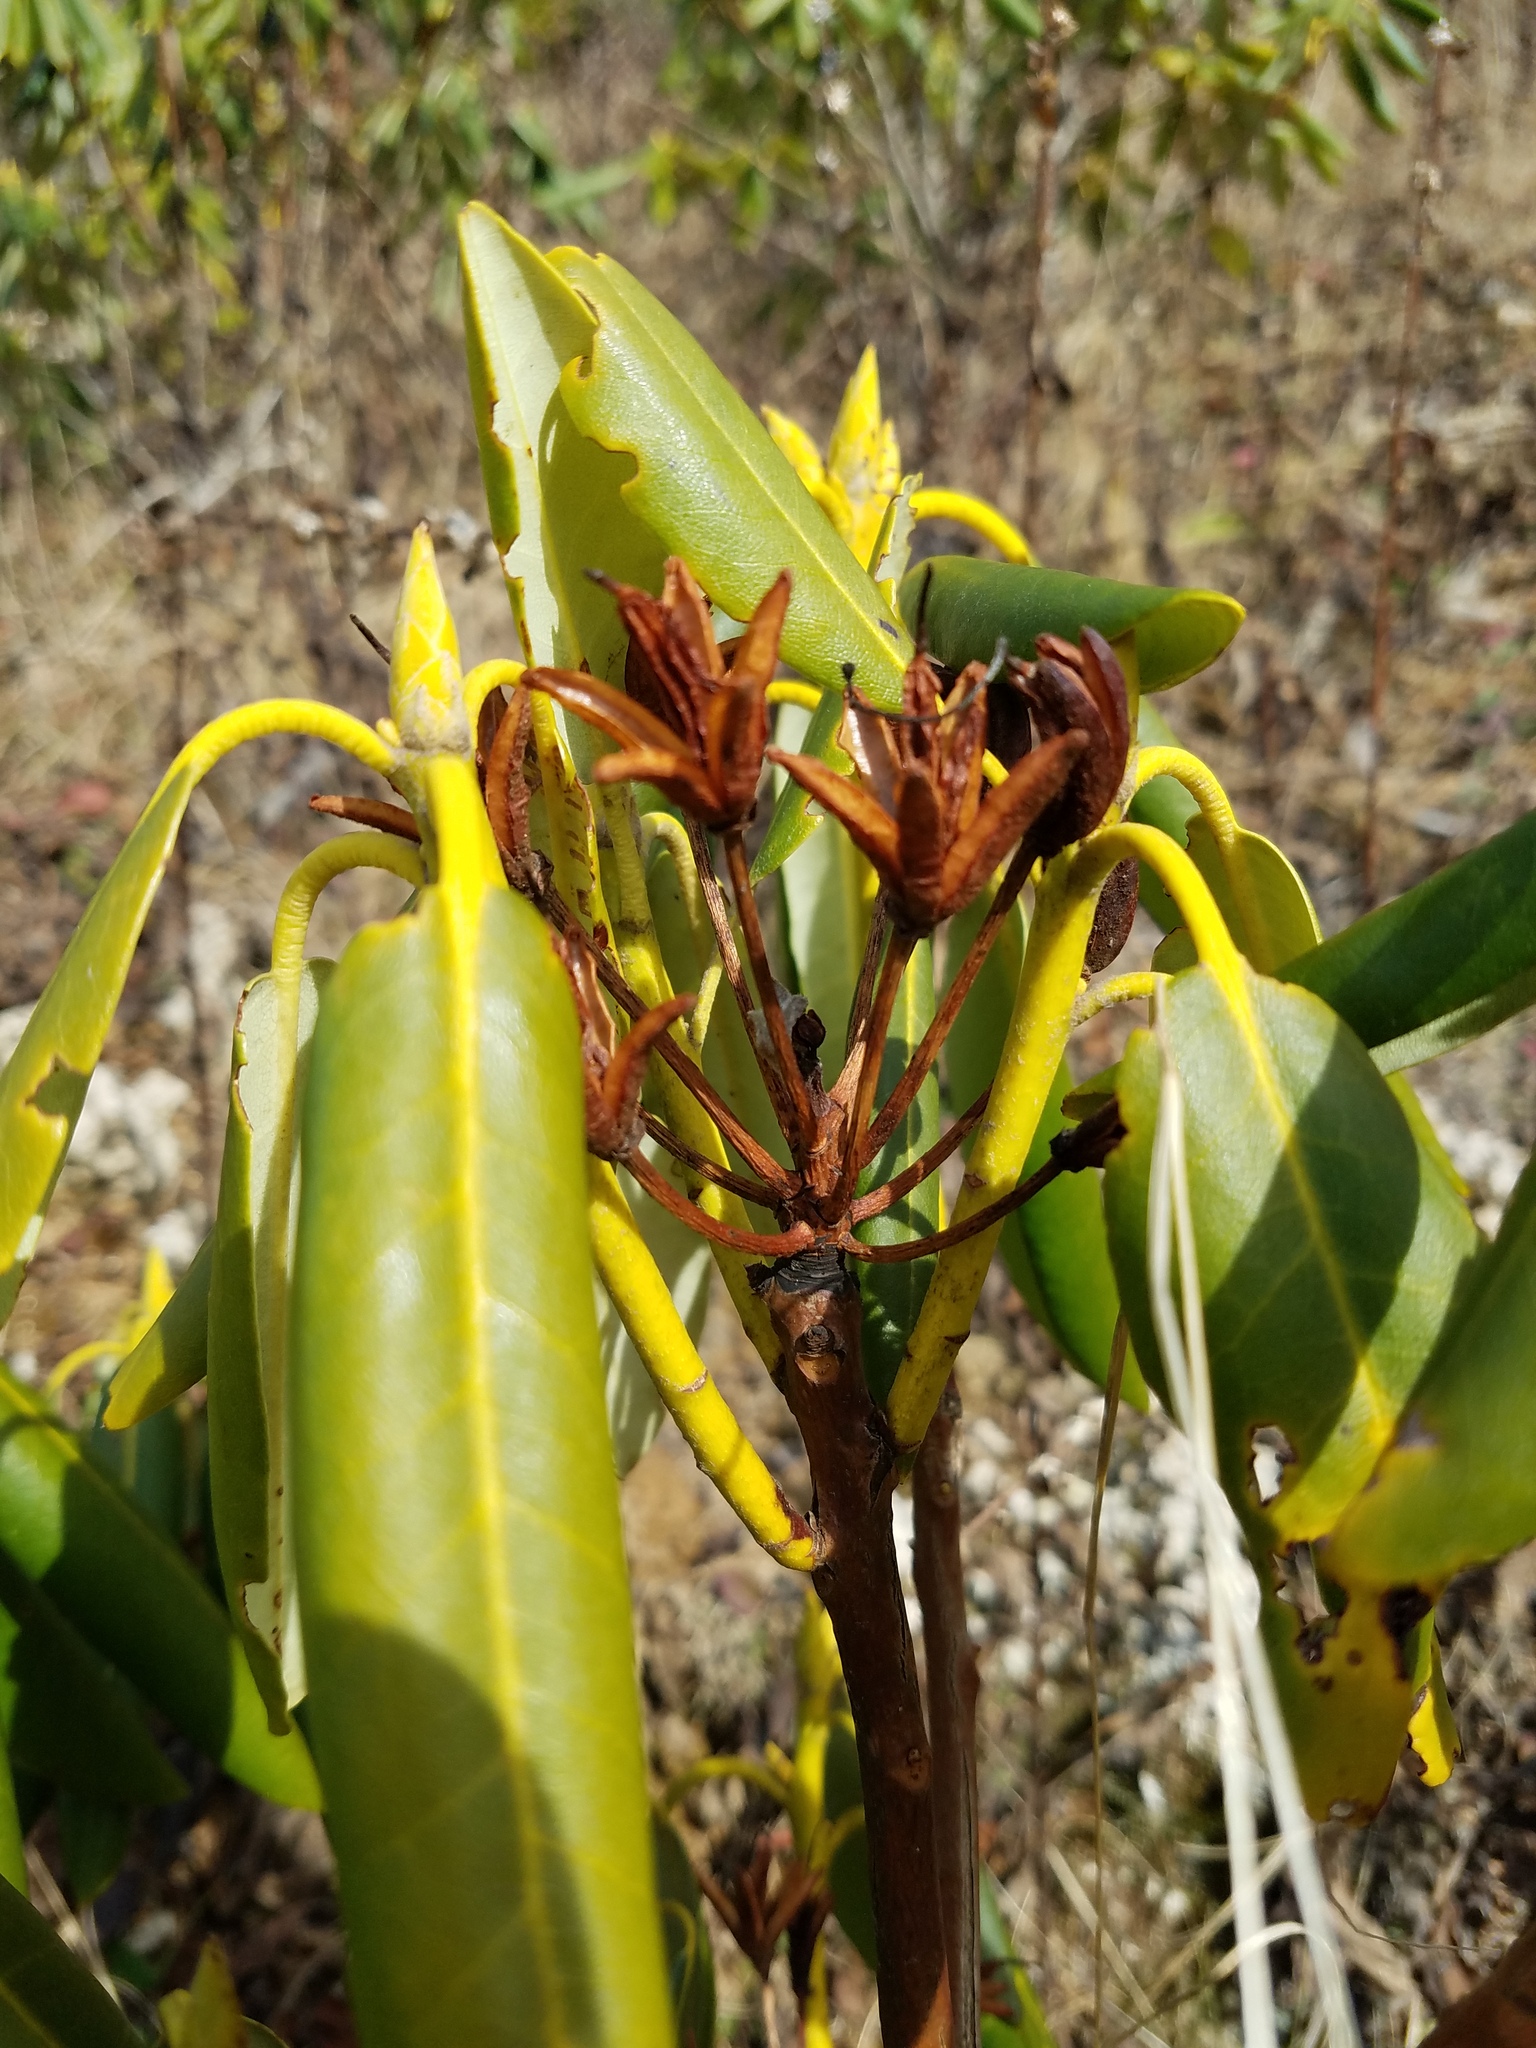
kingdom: Plantae
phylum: Tracheophyta
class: Magnoliopsida
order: Ericales
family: Ericaceae
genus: Rhododendron
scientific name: Rhododendron catawbiense
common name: Catawba rhododendron
